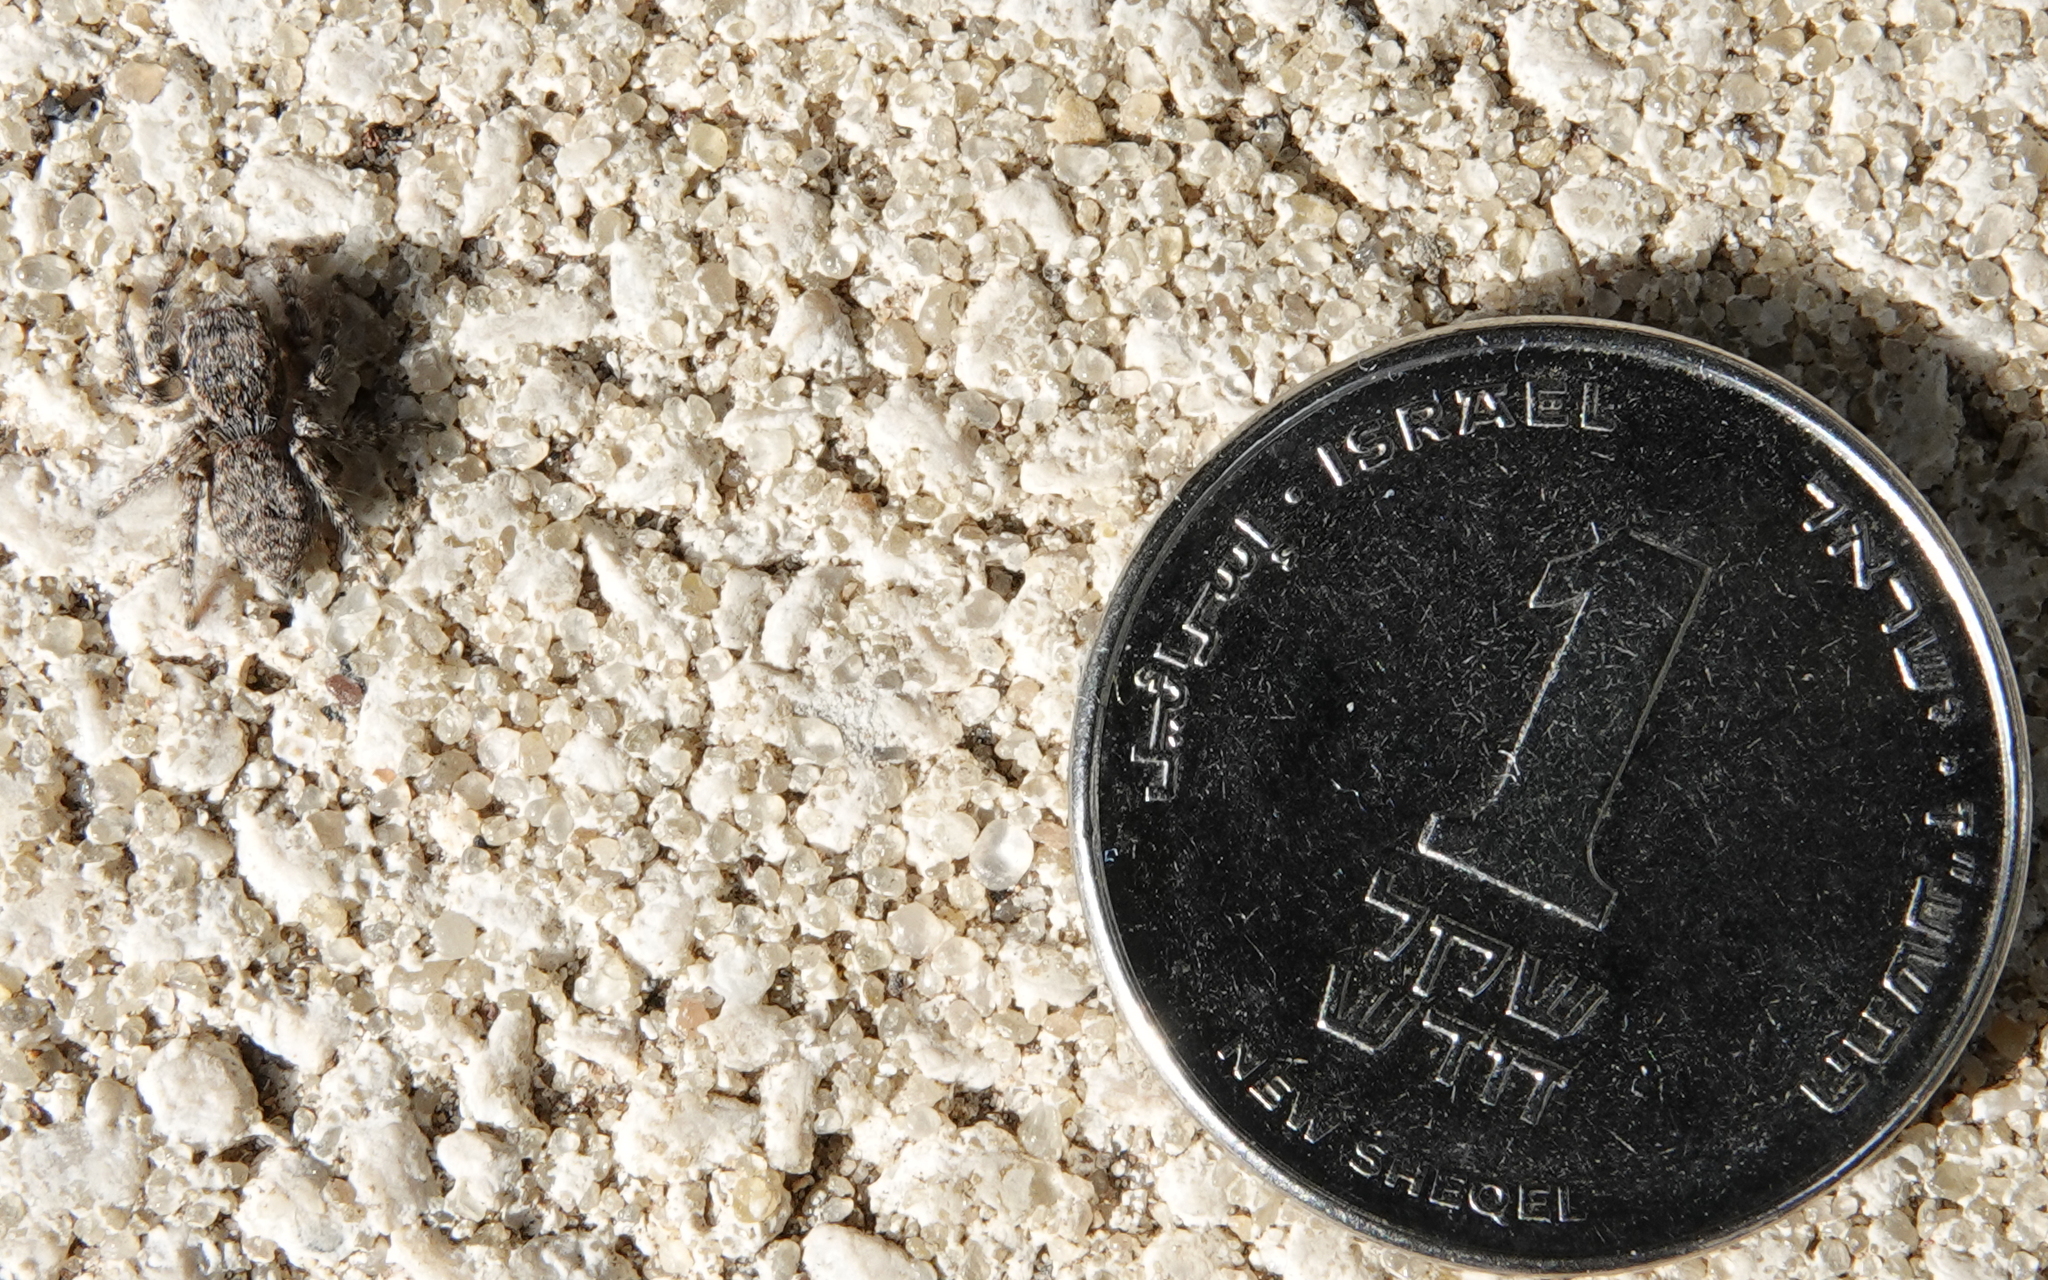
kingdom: Animalia
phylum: Arthropoda
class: Arachnida
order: Araneae
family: Salticidae
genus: Philaeus
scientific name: Philaeus chrysops
